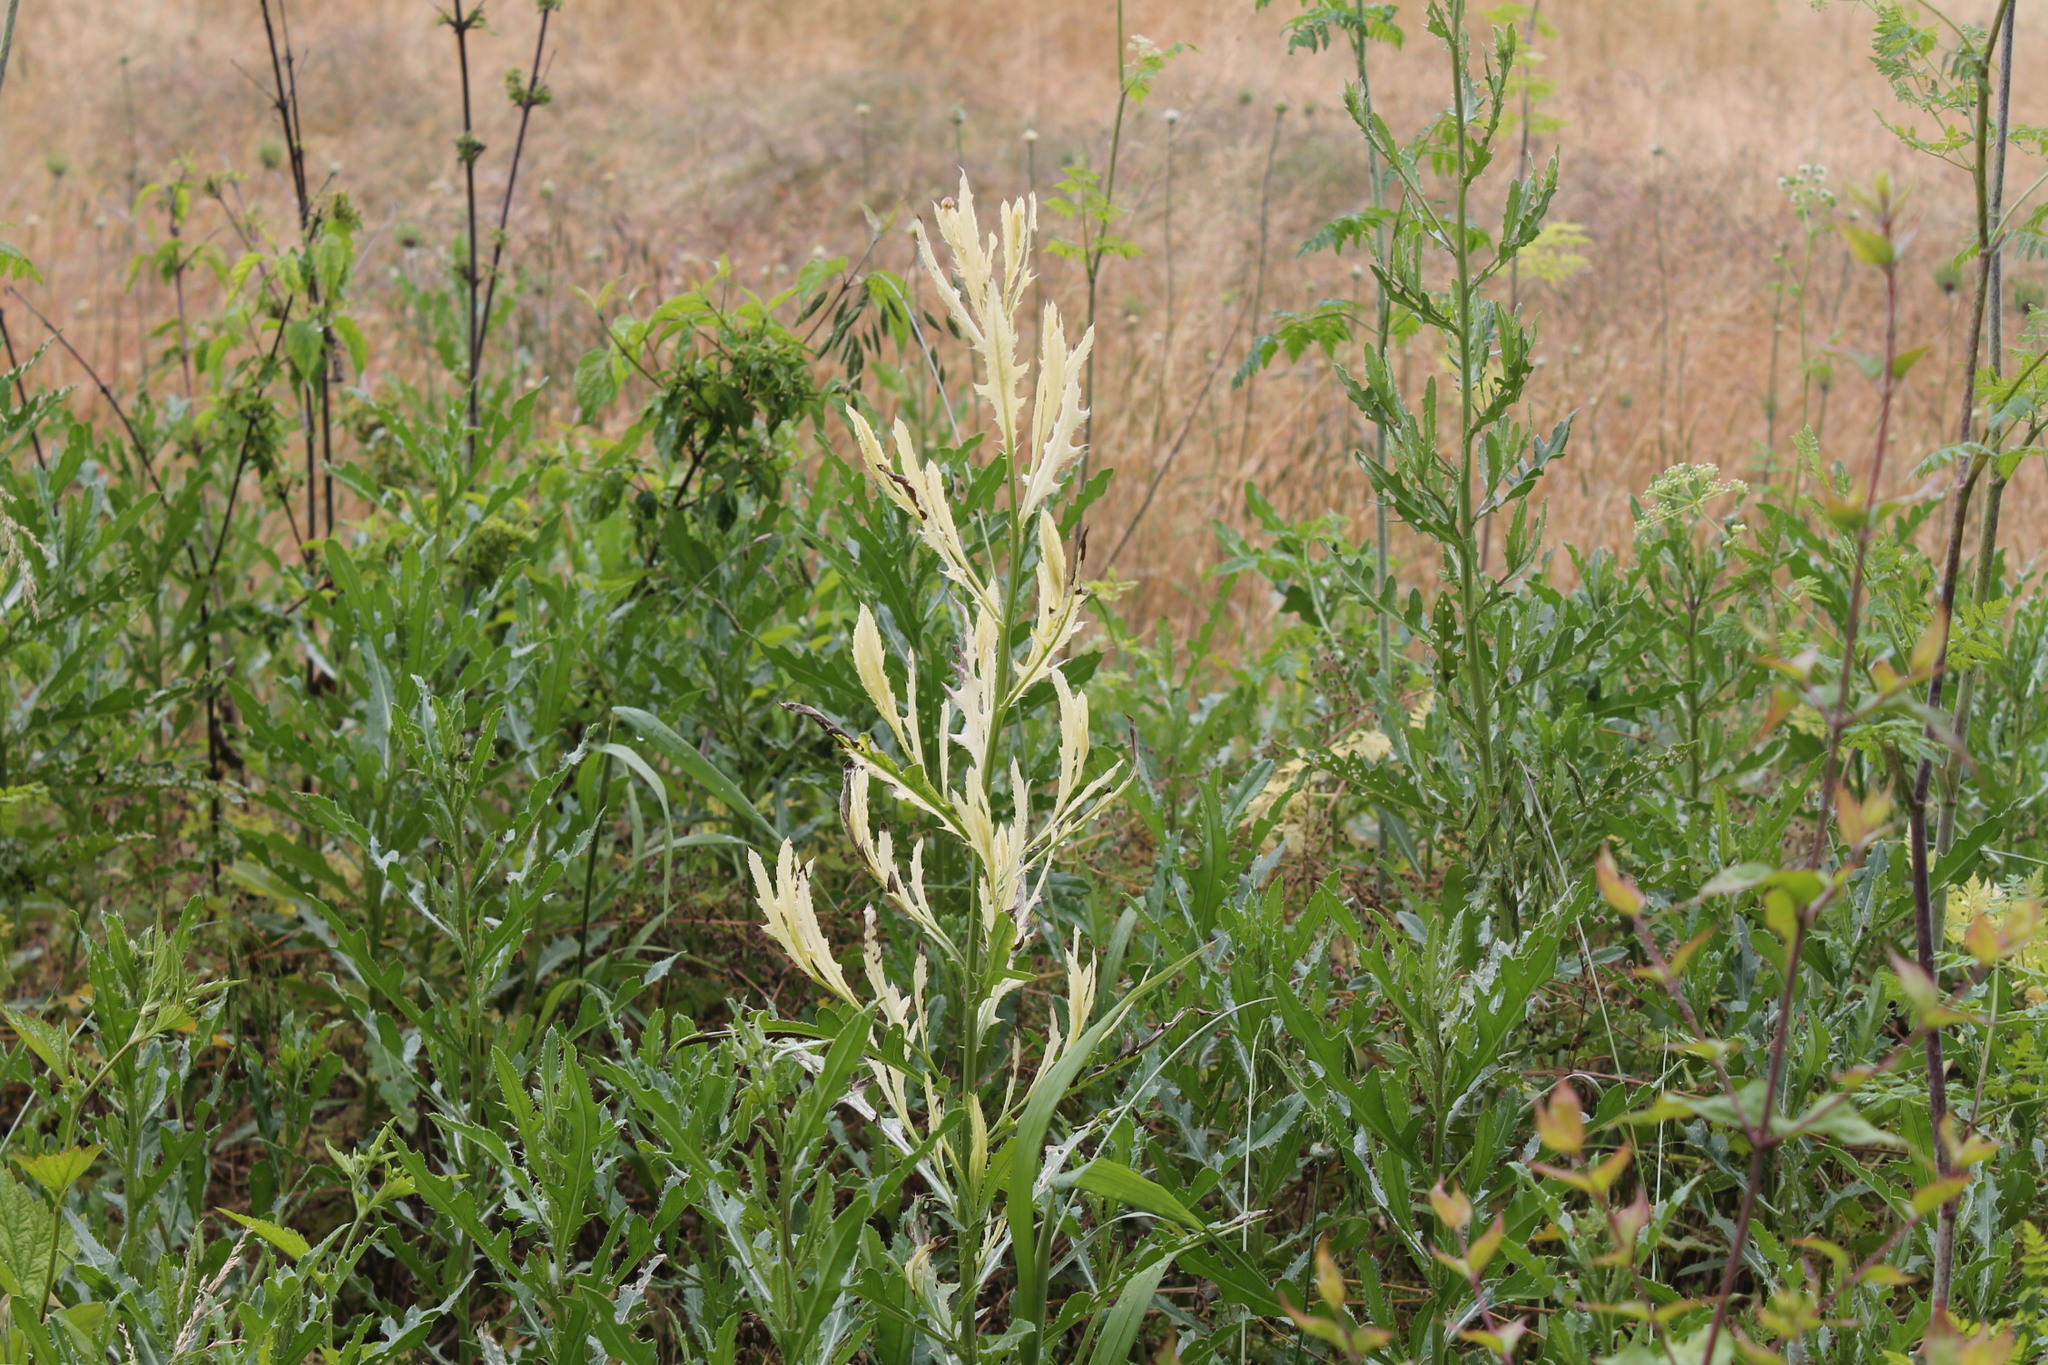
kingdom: Bacteria
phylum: Proteobacteria
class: Gammaproteobacteria
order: Pseudomonadales
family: Pseudomonadaceae
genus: Pseudomonas
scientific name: Pseudomonas syringae
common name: Bacterial speck
